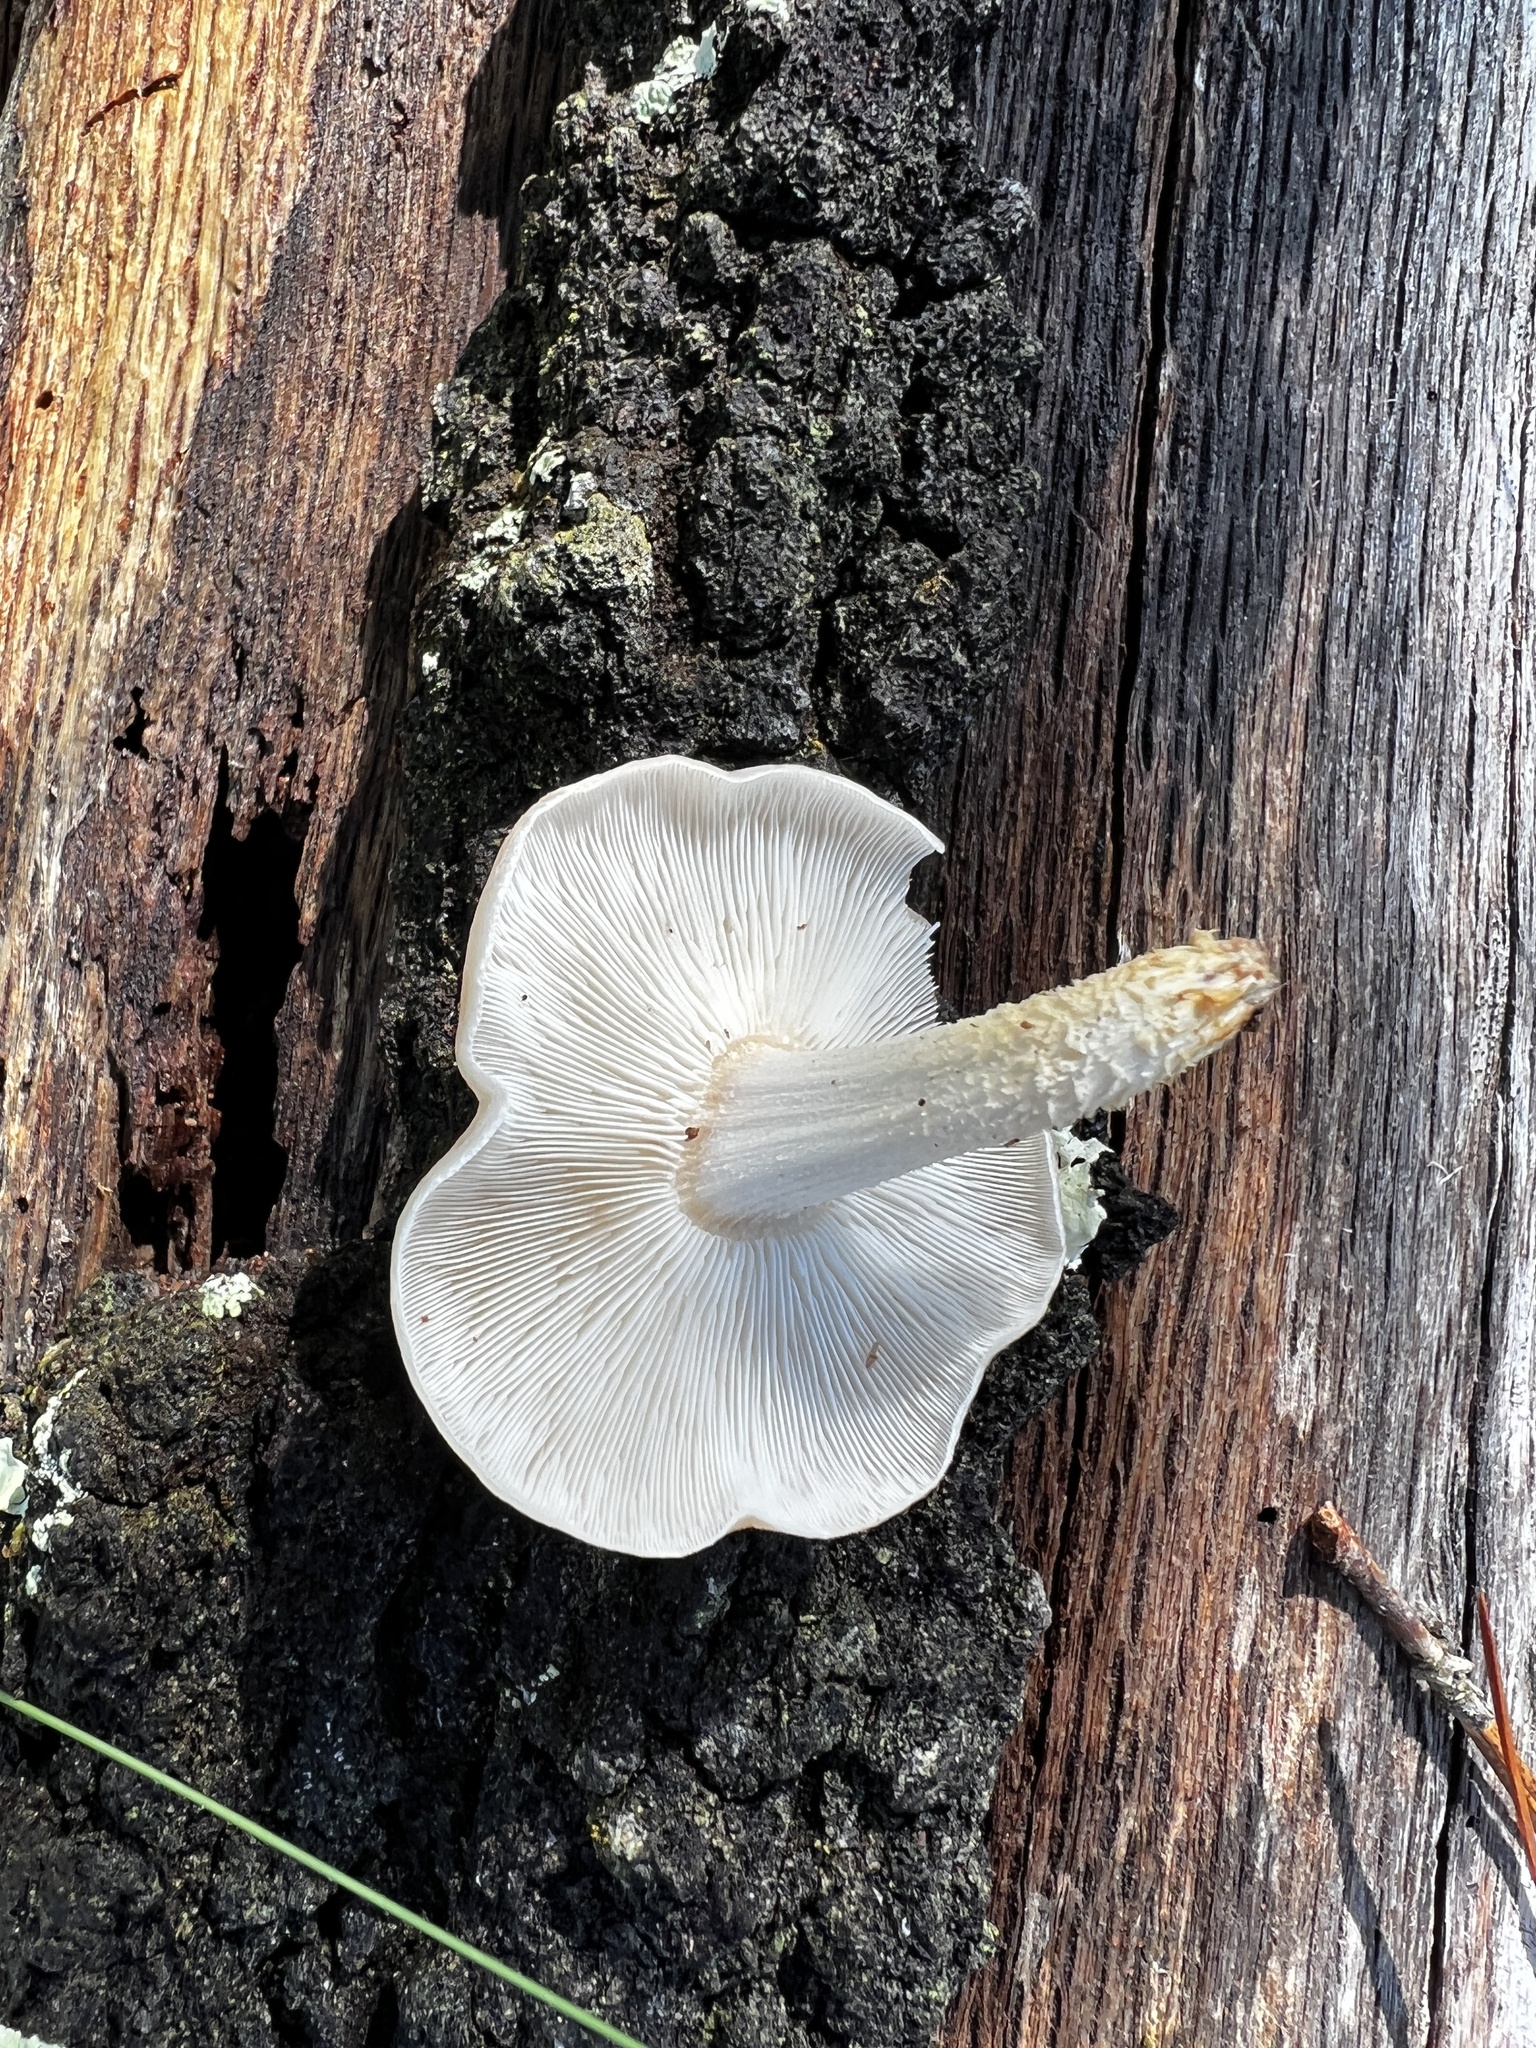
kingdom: Fungi
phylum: Basidiomycota
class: Agaricomycetes
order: Agaricales
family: Omphalotaceae
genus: Lentinula
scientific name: Lentinula raphanica
